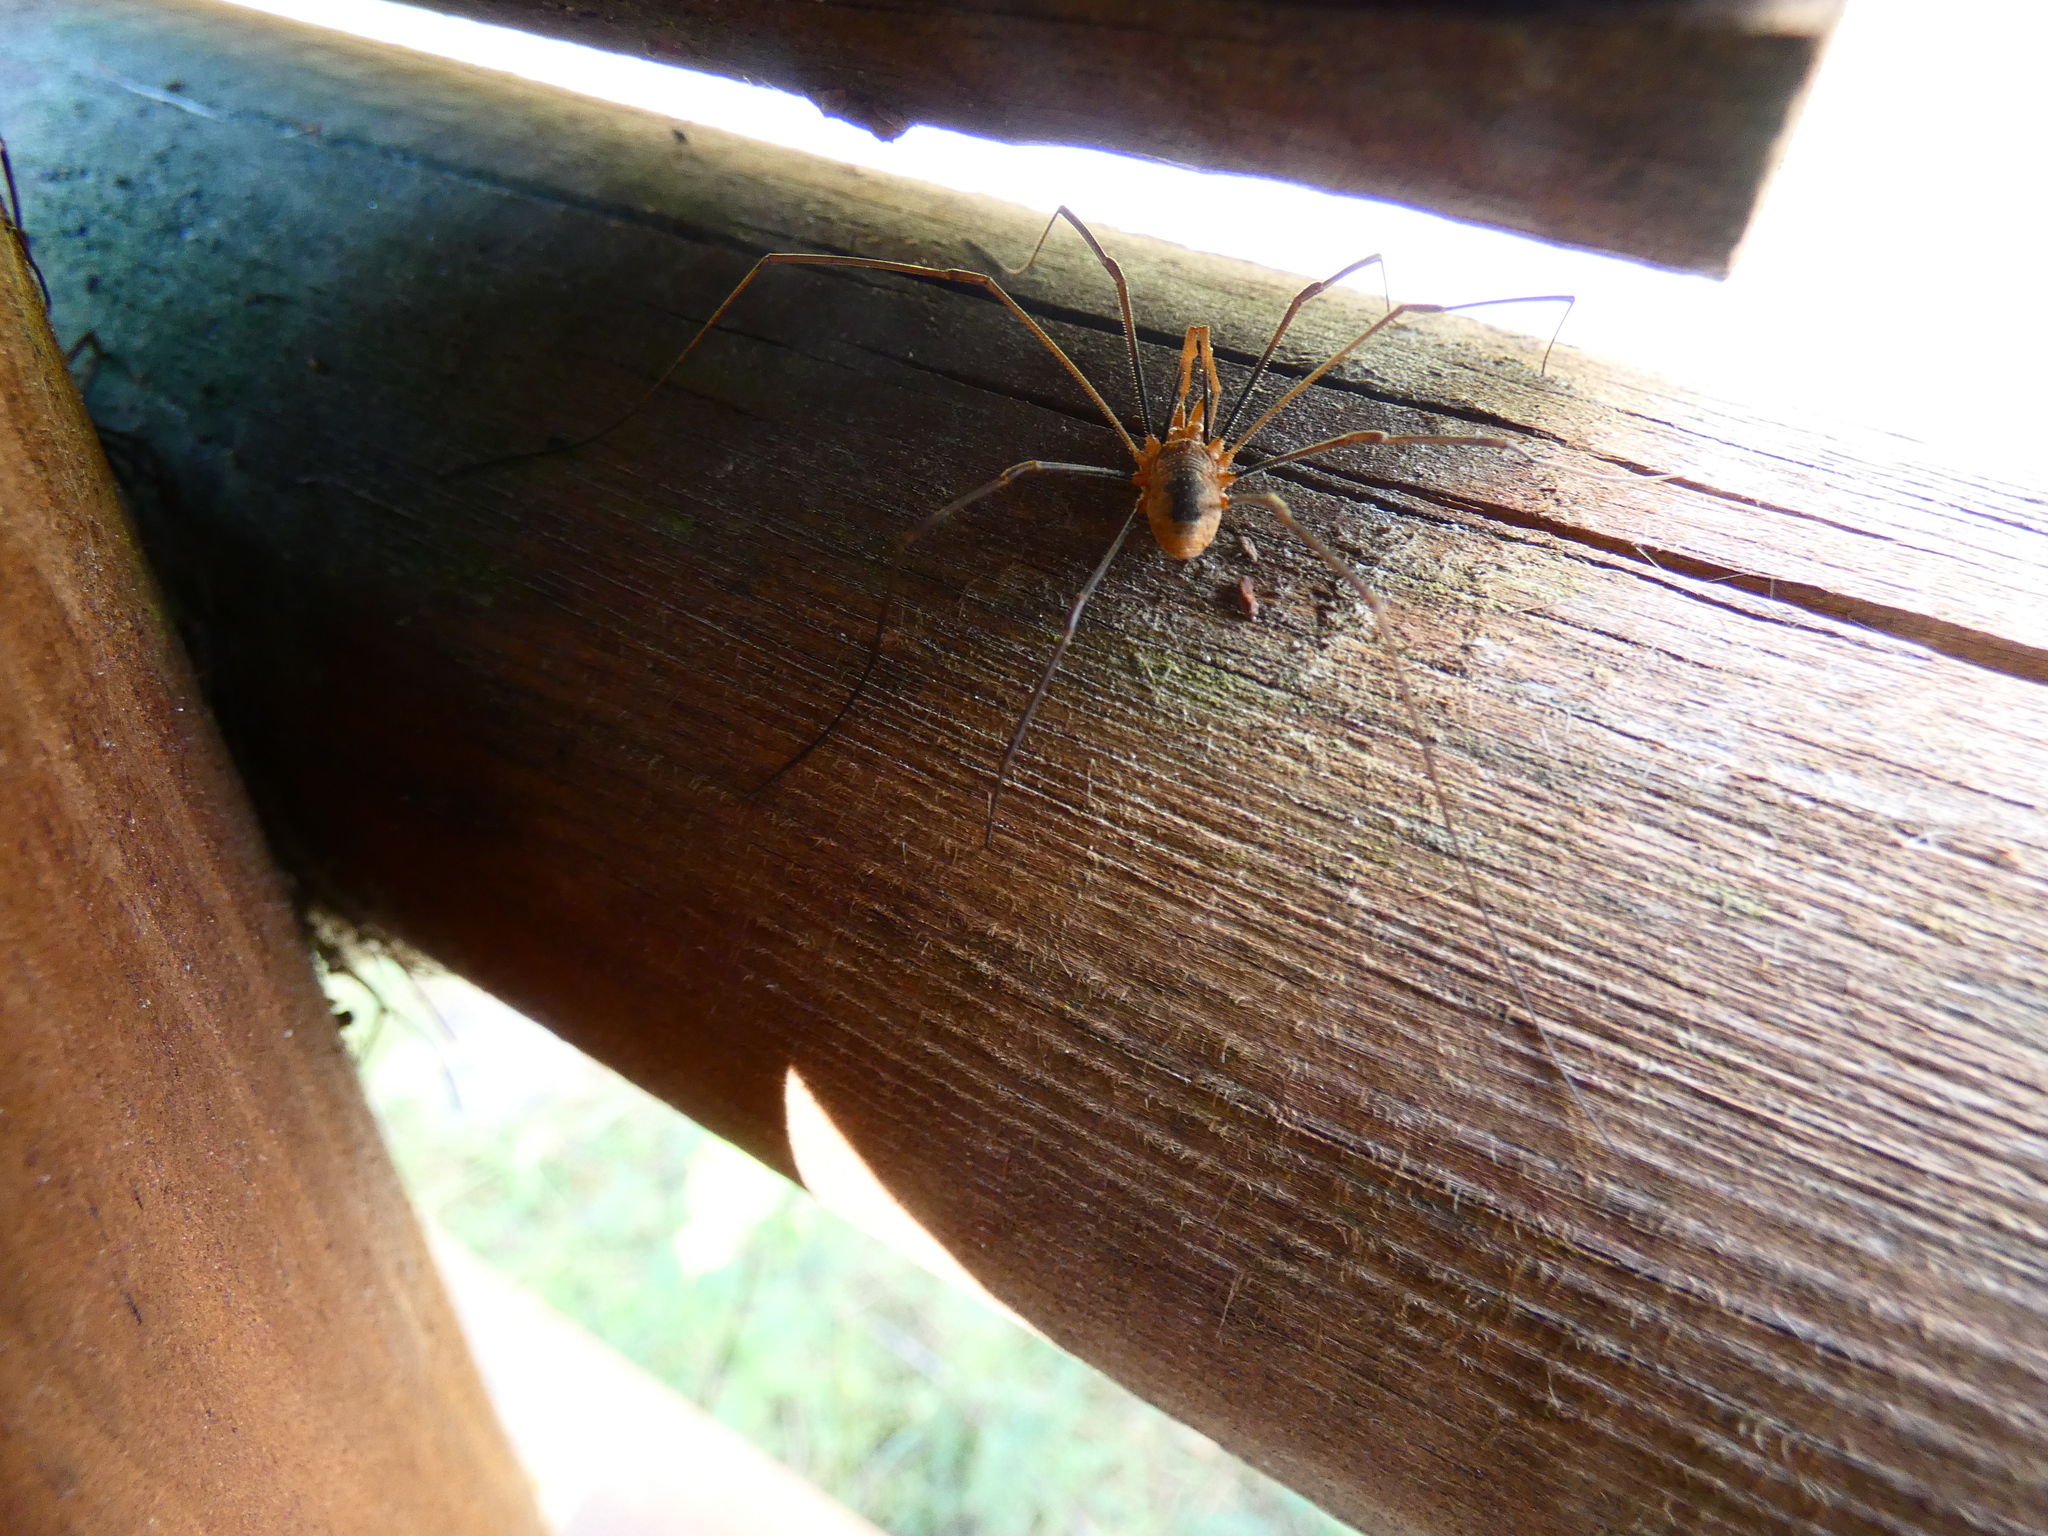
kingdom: Animalia
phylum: Arthropoda
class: Arachnida
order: Opiliones
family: Phalangiidae
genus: Phalangium
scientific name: Phalangium opilio
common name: Daddy longleg
